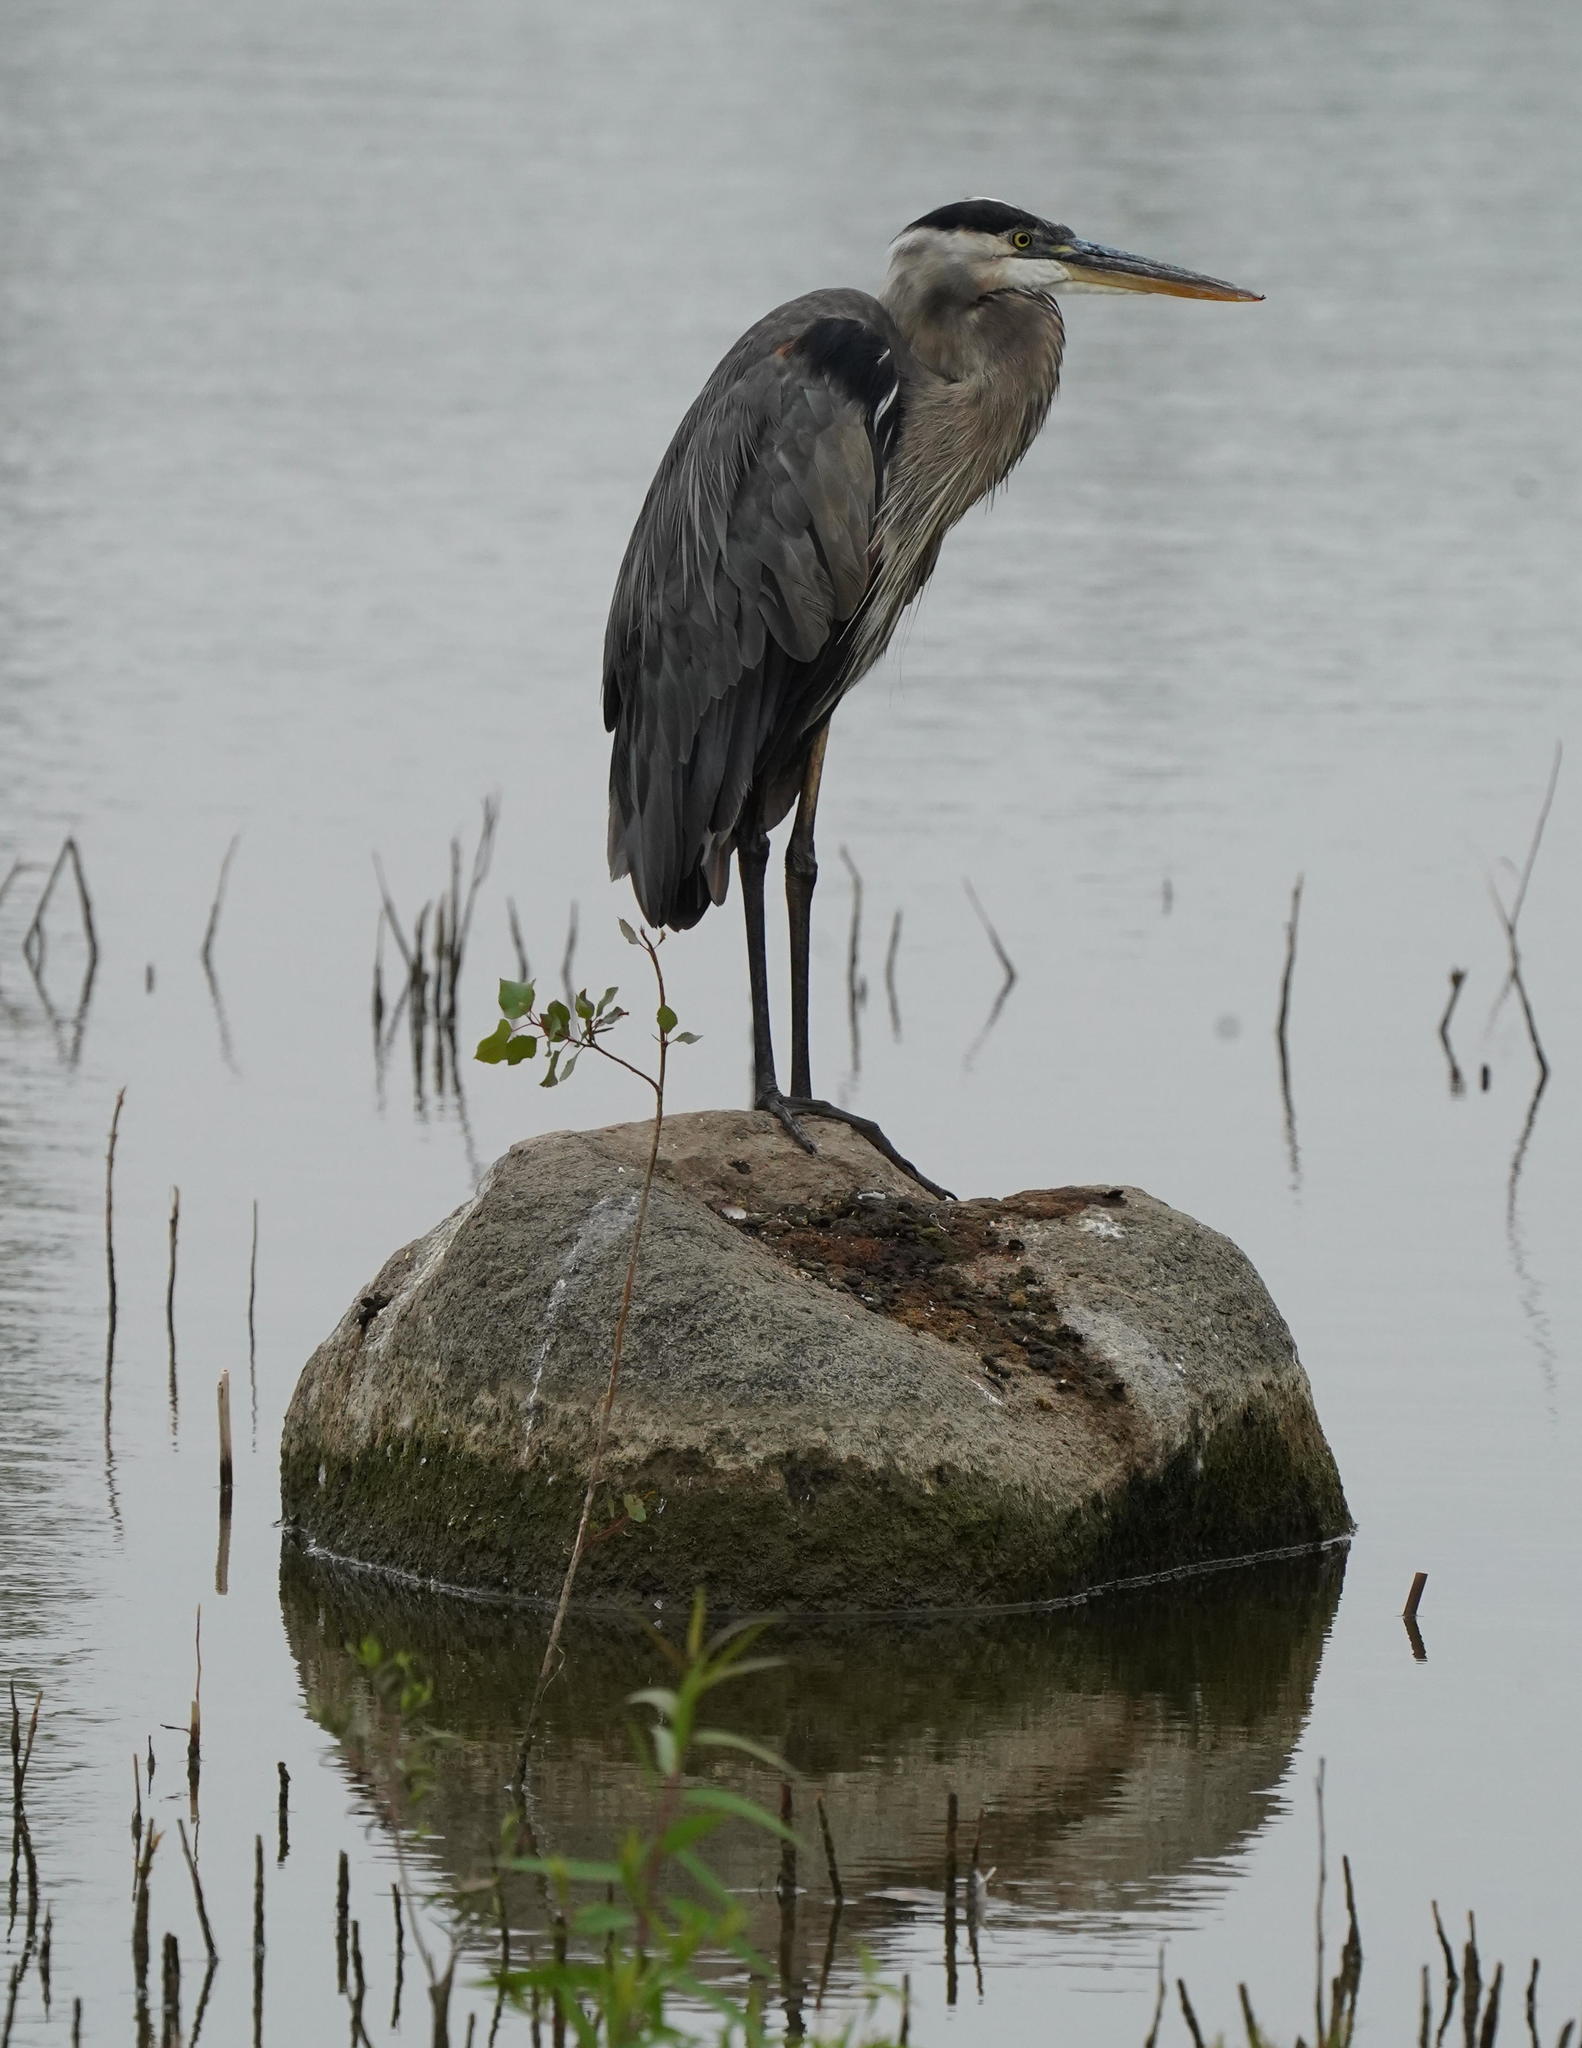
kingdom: Animalia
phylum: Chordata
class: Aves
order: Pelecaniformes
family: Ardeidae
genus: Ardea
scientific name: Ardea herodias
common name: Great blue heron
